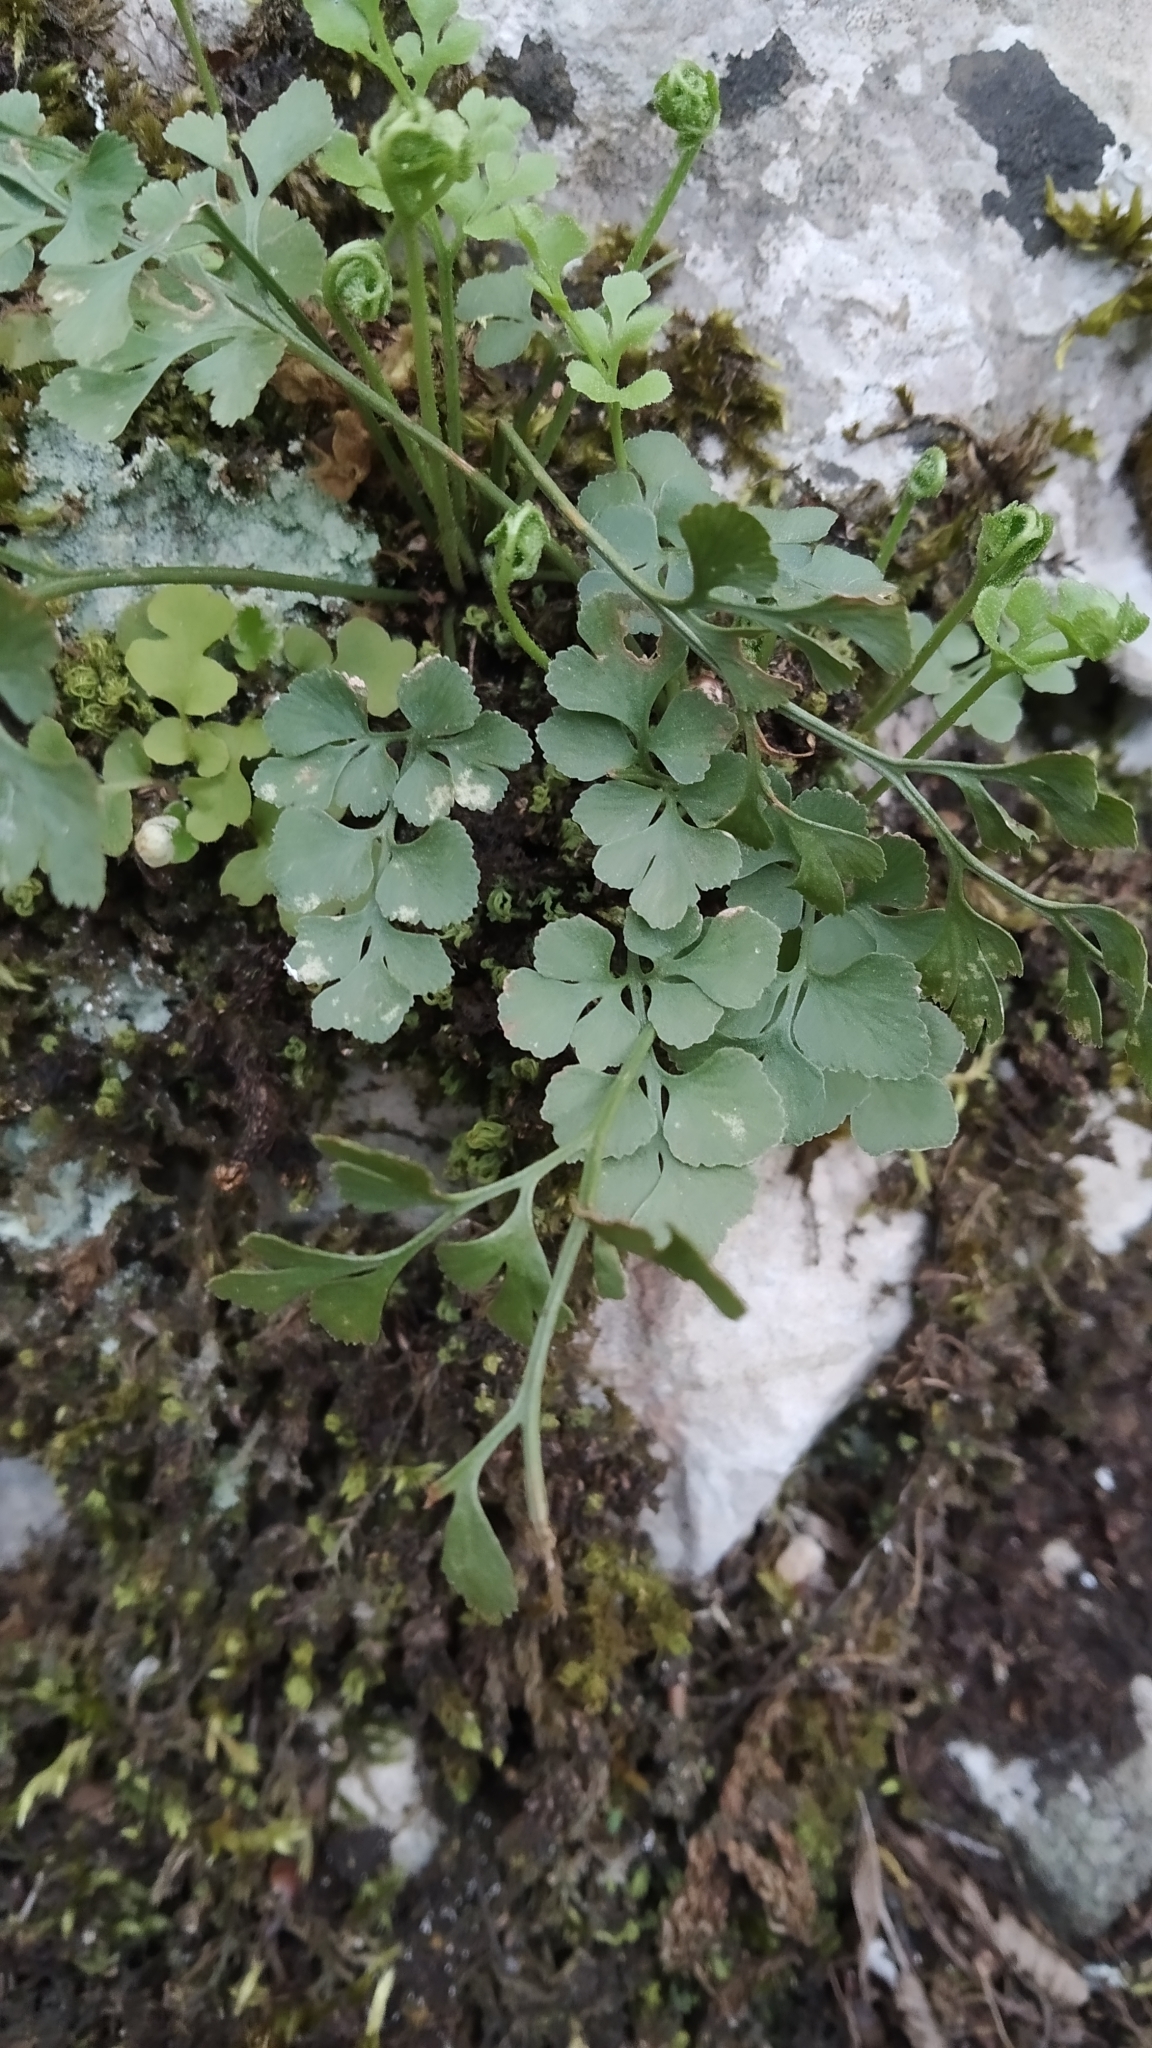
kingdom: Plantae
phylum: Tracheophyta
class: Polypodiopsida
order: Polypodiales
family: Aspleniaceae
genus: Asplenium
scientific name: Asplenium ruta-muraria
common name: Wall-rue
